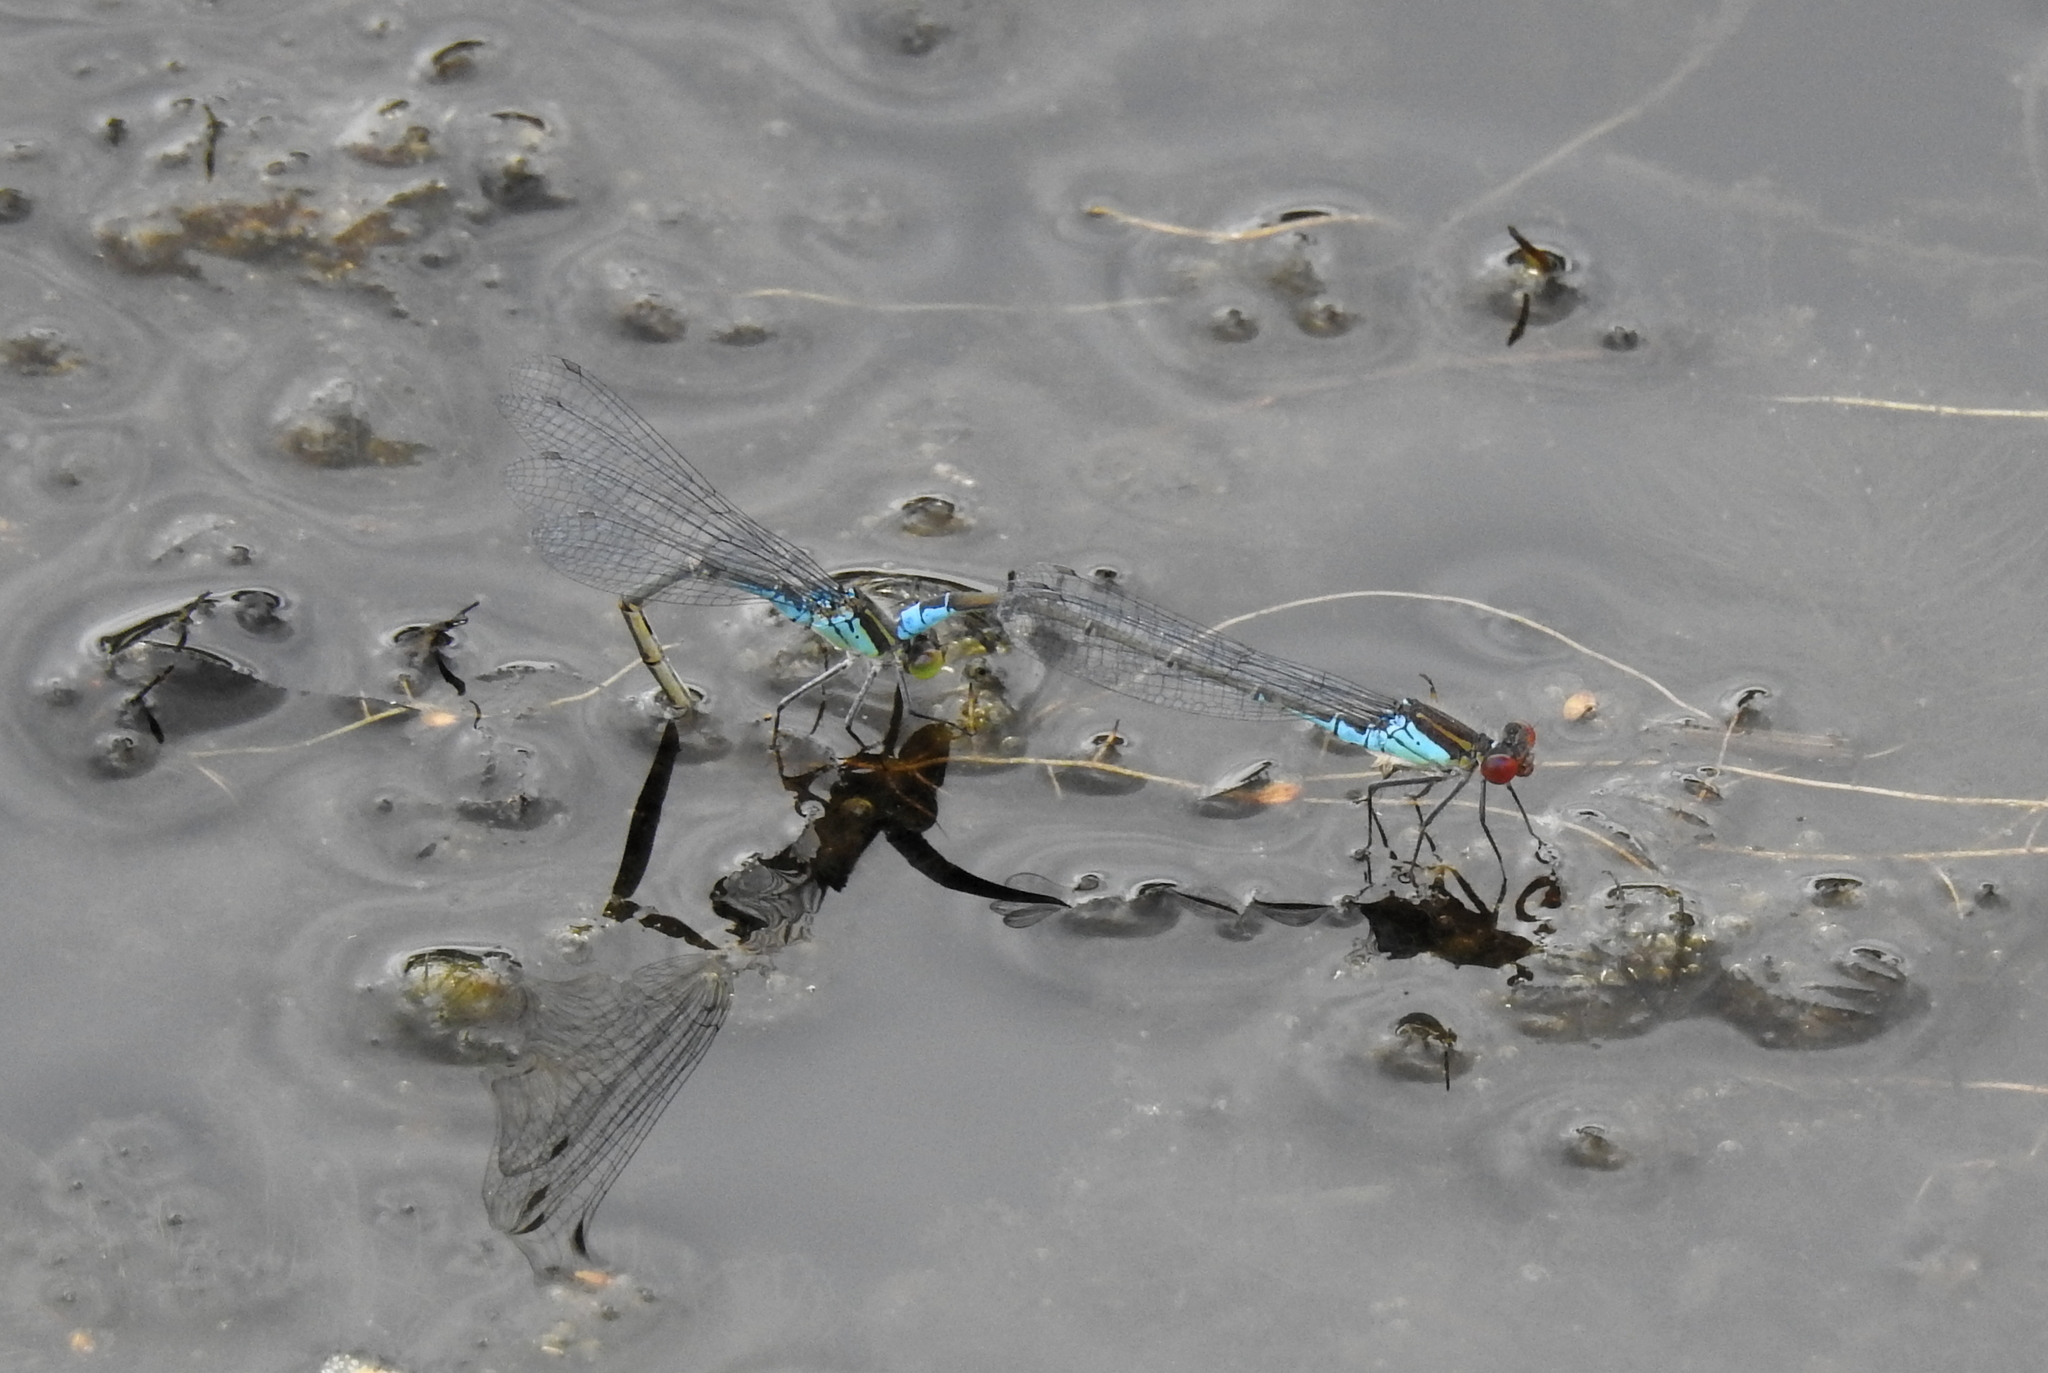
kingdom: Animalia
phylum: Arthropoda
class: Insecta
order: Odonata
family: Coenagrionidae
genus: Erythromma
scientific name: Erythromma viridulum
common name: Small red-eyed damselfly
